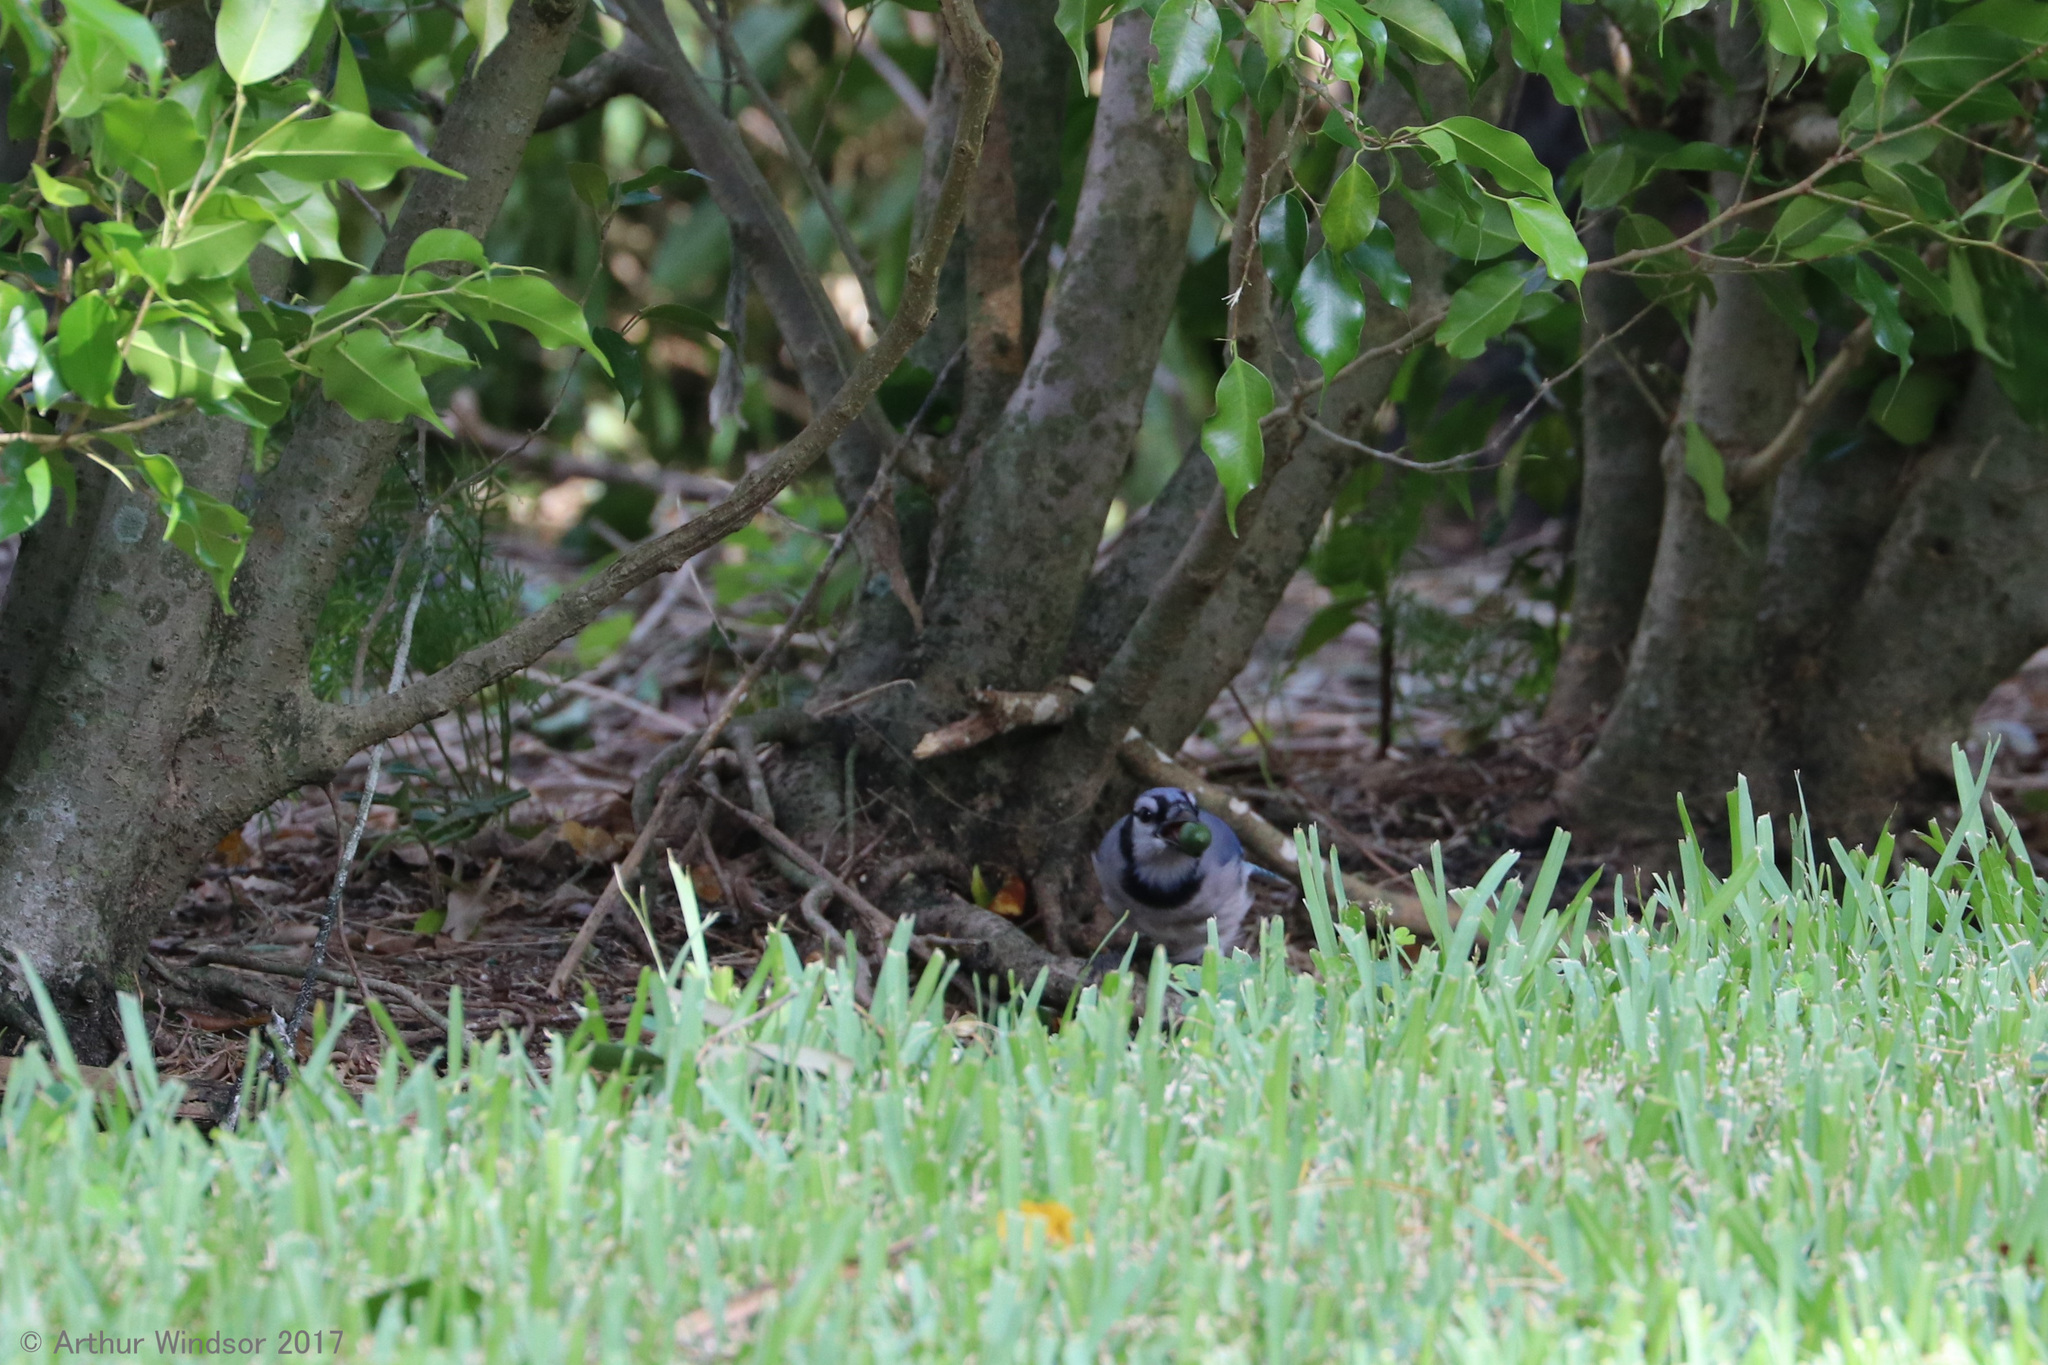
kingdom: Animalia
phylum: Chordata
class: Aves
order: Passeriformes
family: Corvidae
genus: Cyanocitta
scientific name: Cyanocitta cristata
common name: Blue jay
